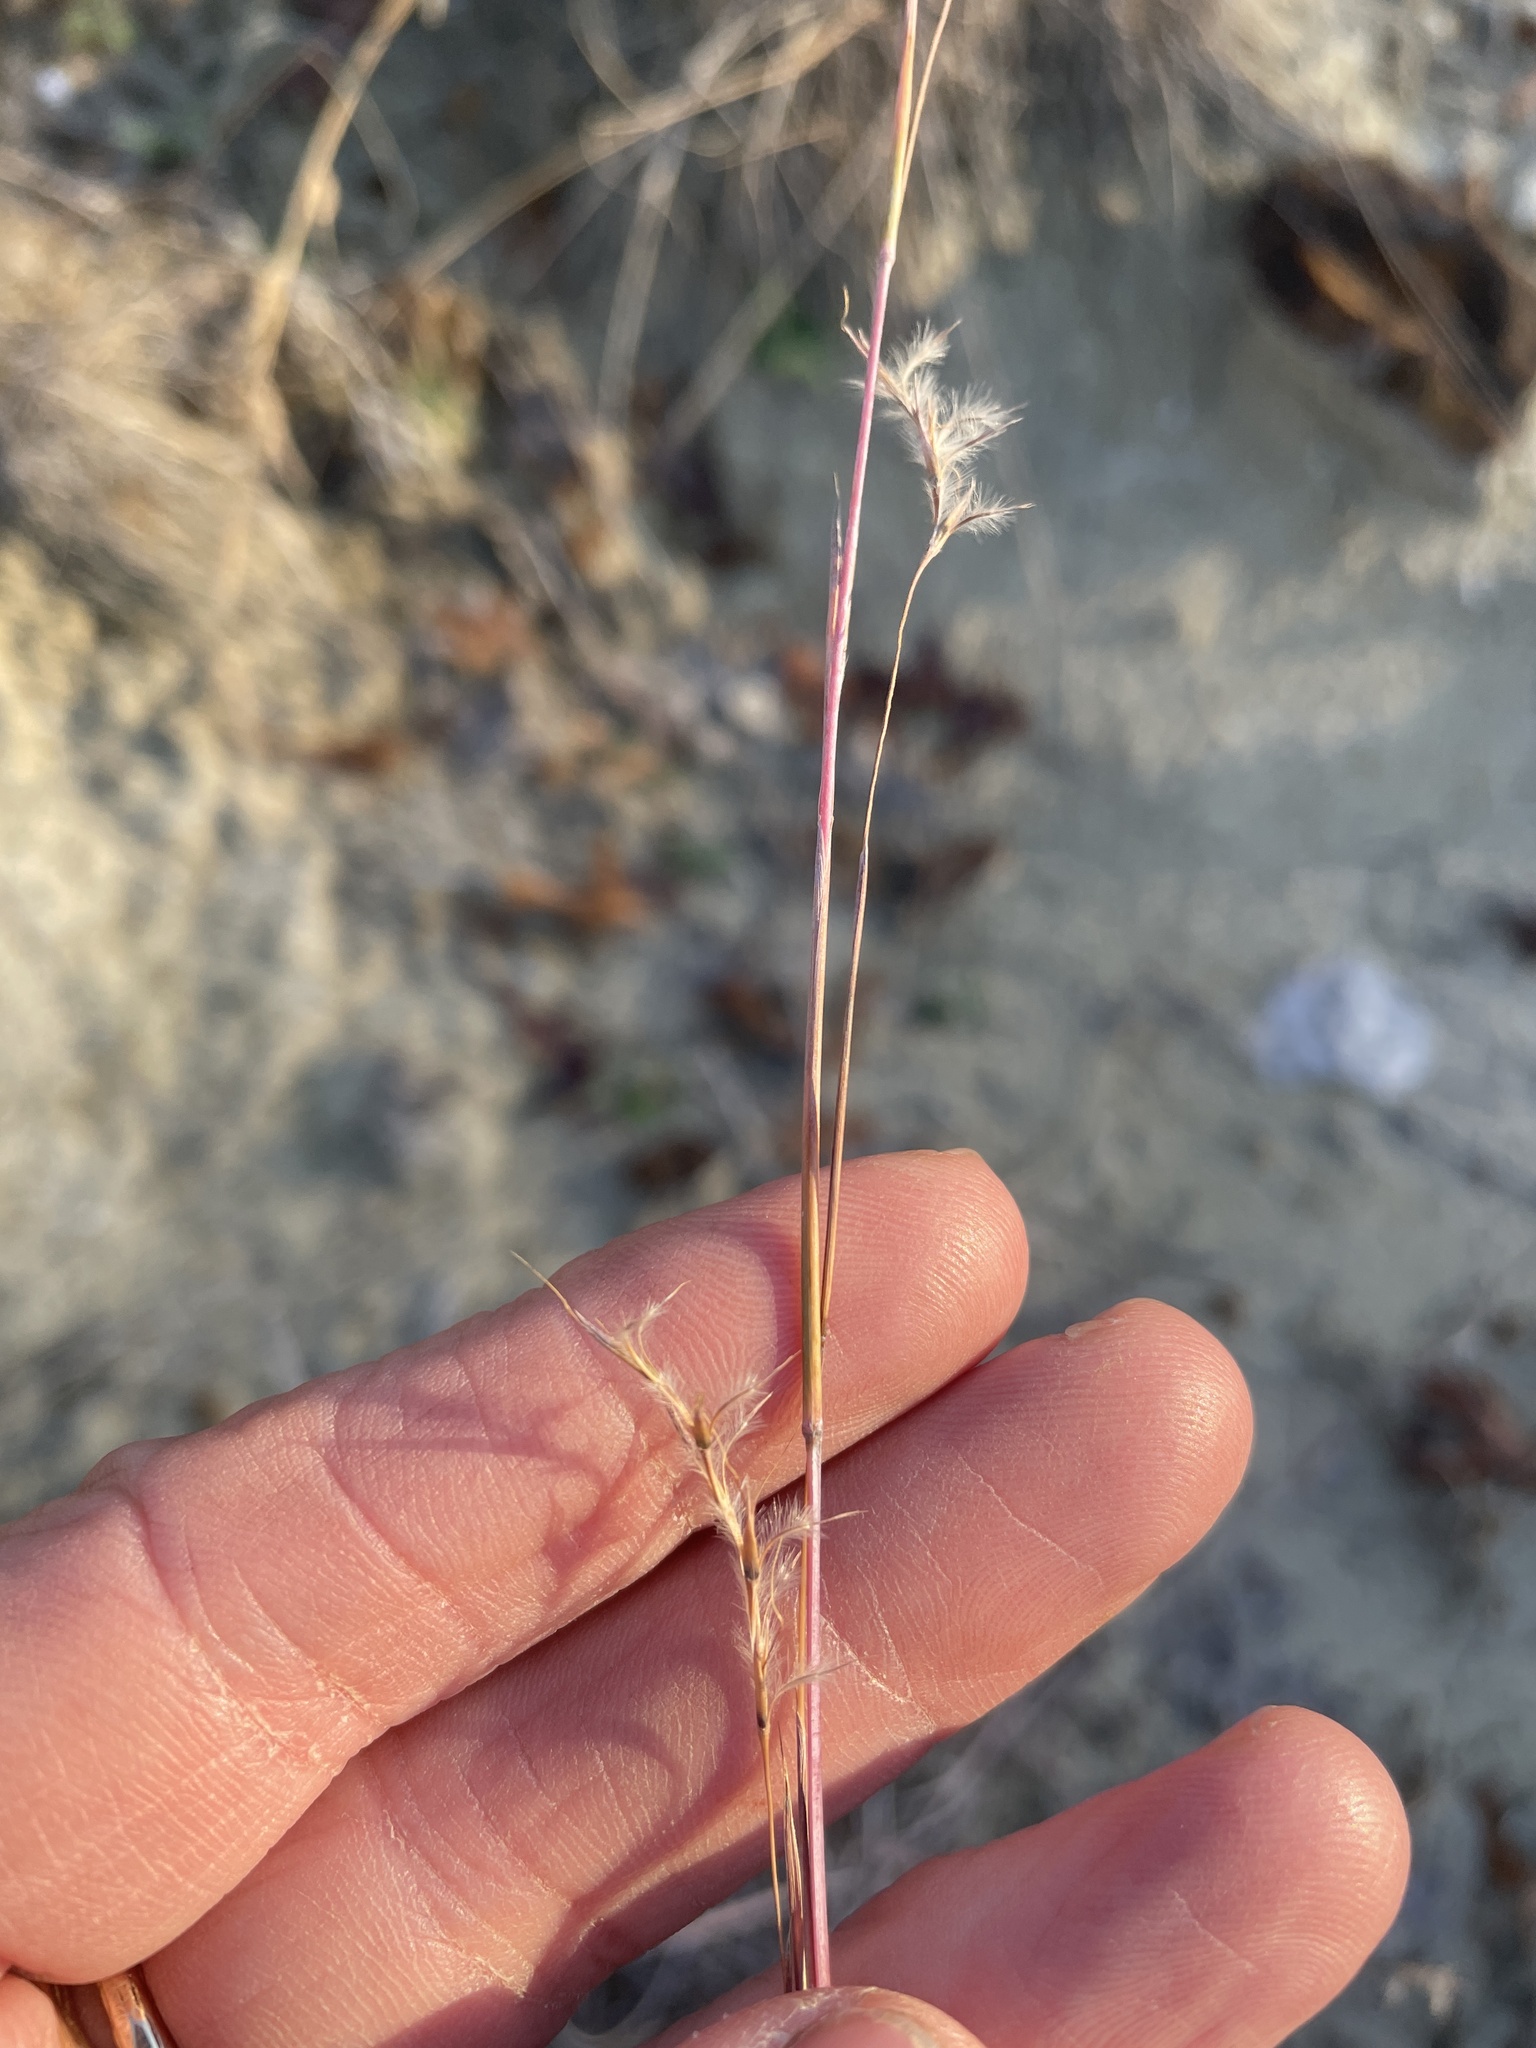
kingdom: Plantae
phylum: Tracheophyta
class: Liliopsida
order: Poales
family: Poaceae
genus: Schizachyrium
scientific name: Schizachyrium scoparium
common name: Little bluestem
